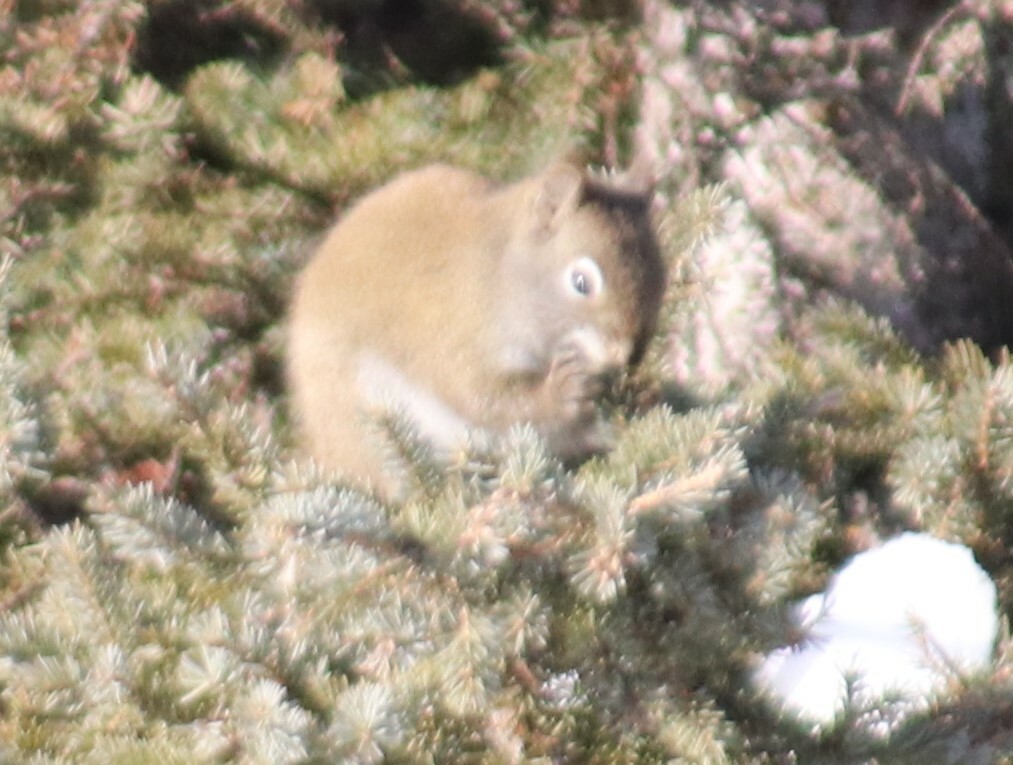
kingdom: Animalia
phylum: Chordata
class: Mammalia
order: Rodentia
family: Sciuridae
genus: Tamiasciurus
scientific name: Tamiasciurus hudsonicus
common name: Red squirrel
